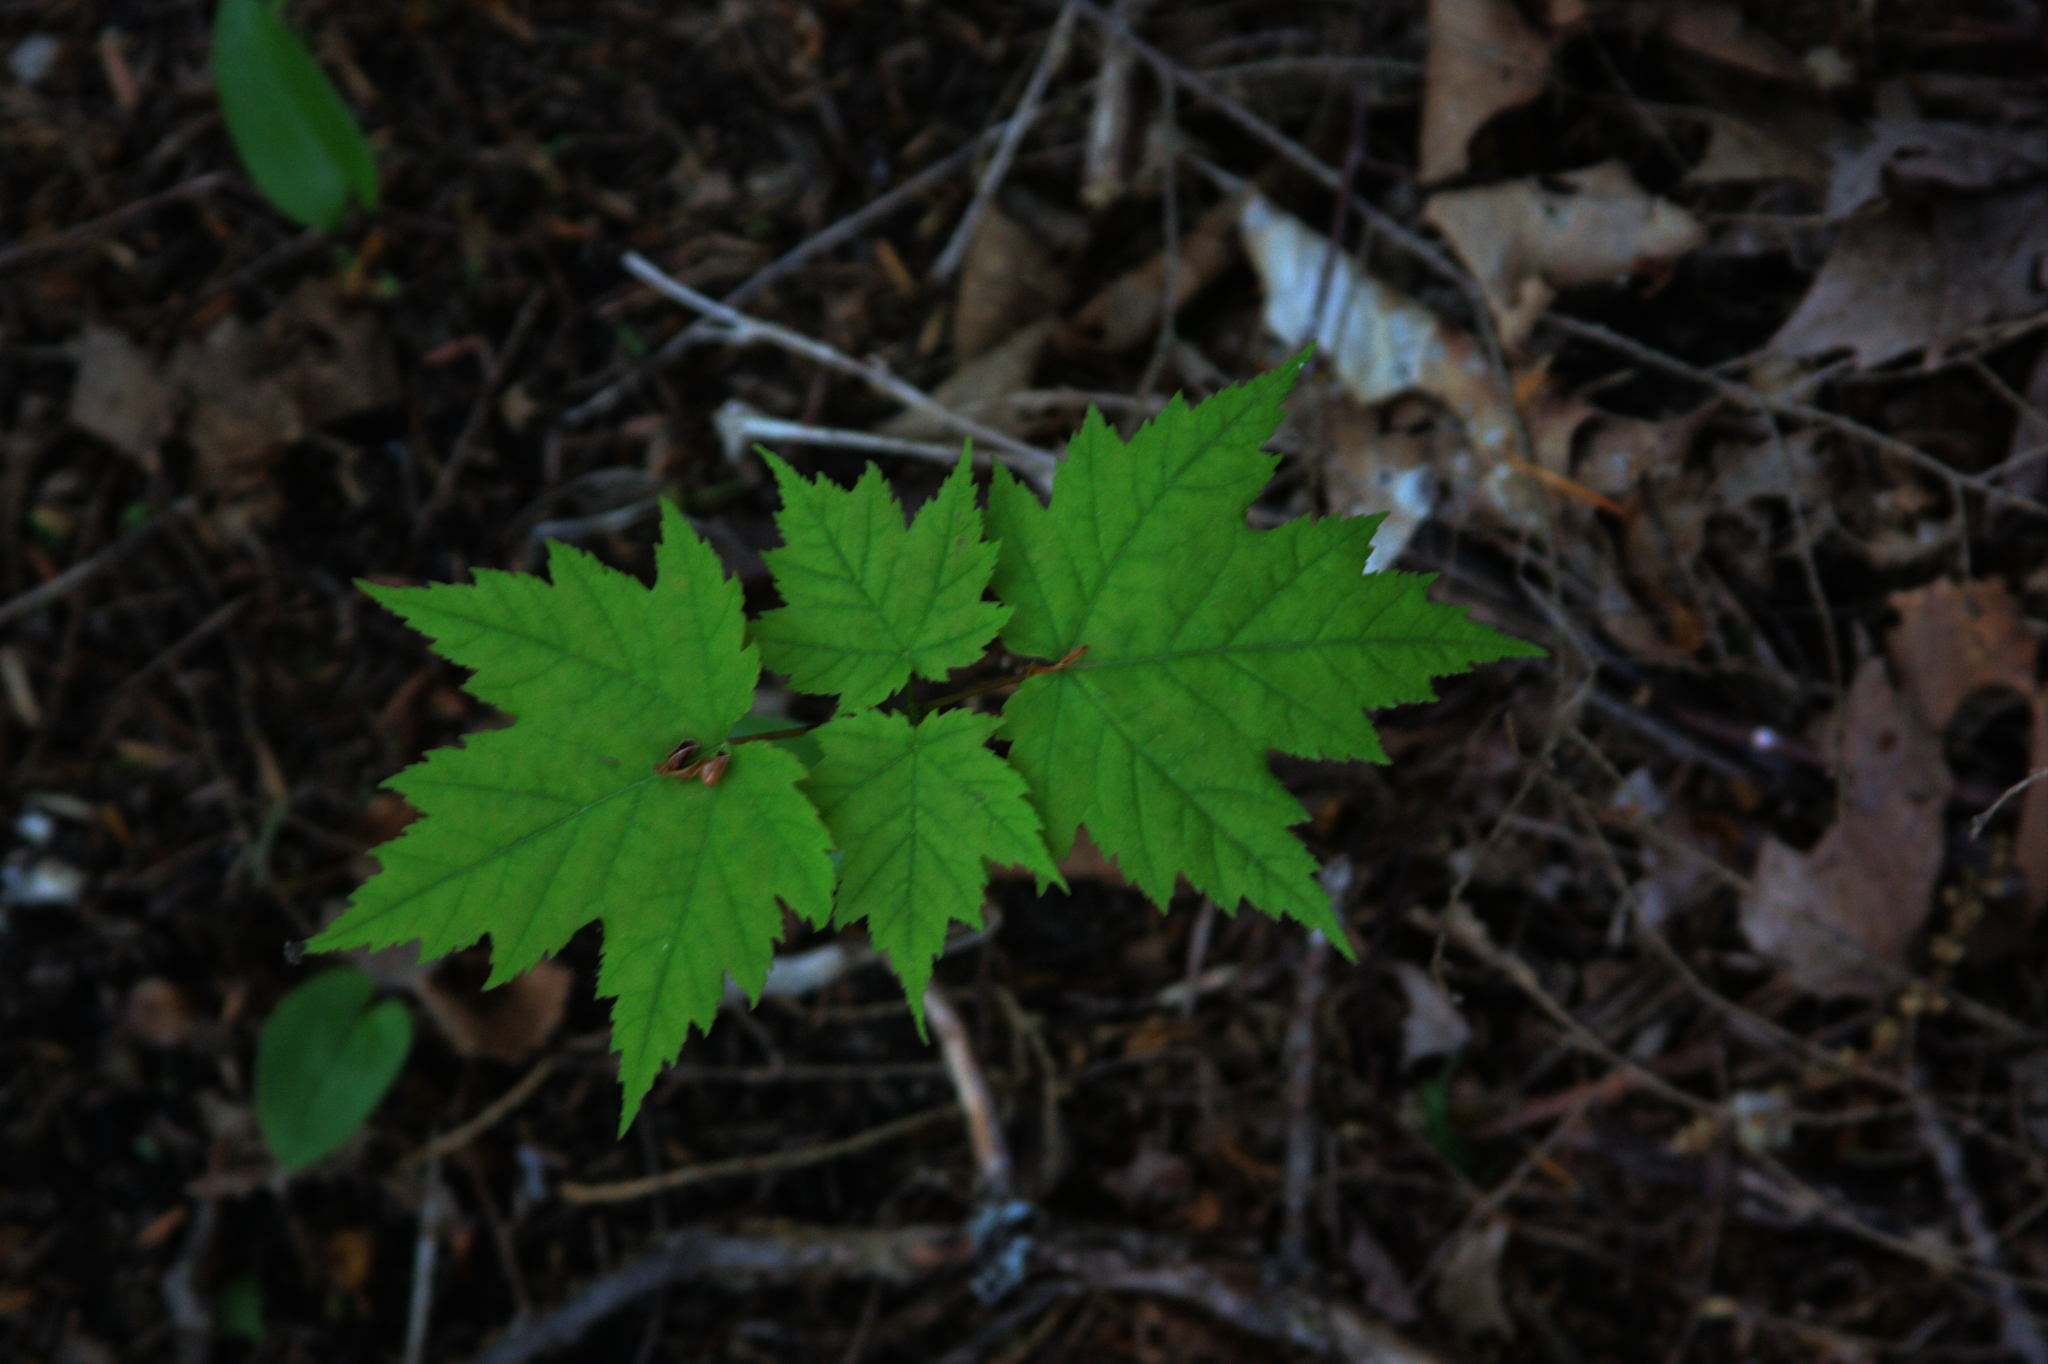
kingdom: Plantae
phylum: Tracheophyta
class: Magnoliopsida
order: Sapindales
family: Sapindaceae
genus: Acer
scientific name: Acer rubrum
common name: Red maple
